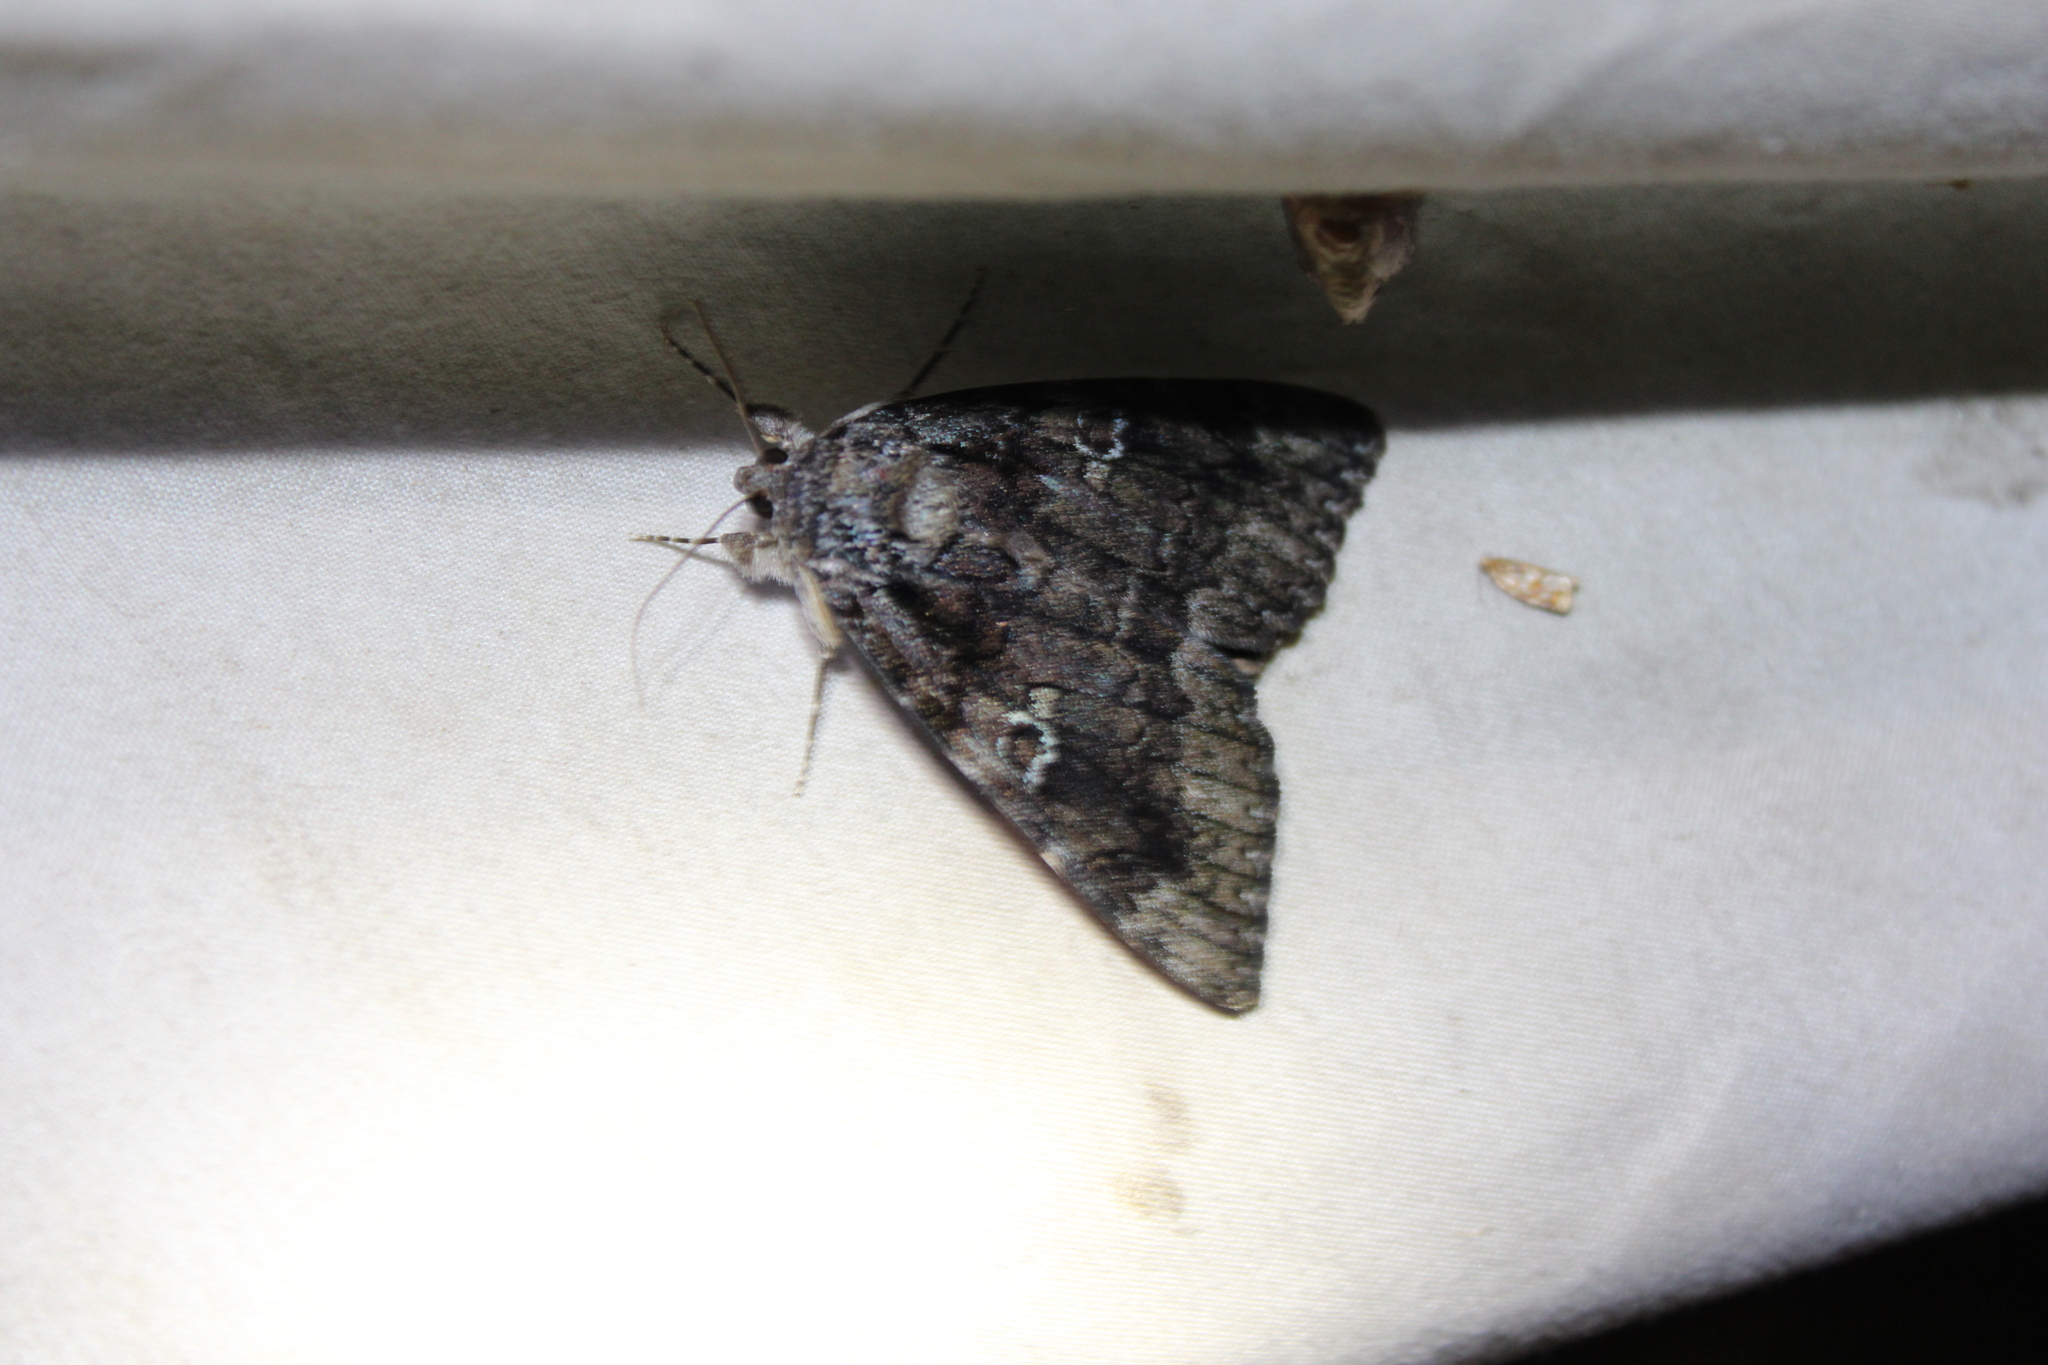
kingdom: Animalia
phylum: Arthropoda
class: Insecta
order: Lepidoptera
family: Erebidae
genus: Catocala
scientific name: Catocala ilia
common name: Ilia underwing
